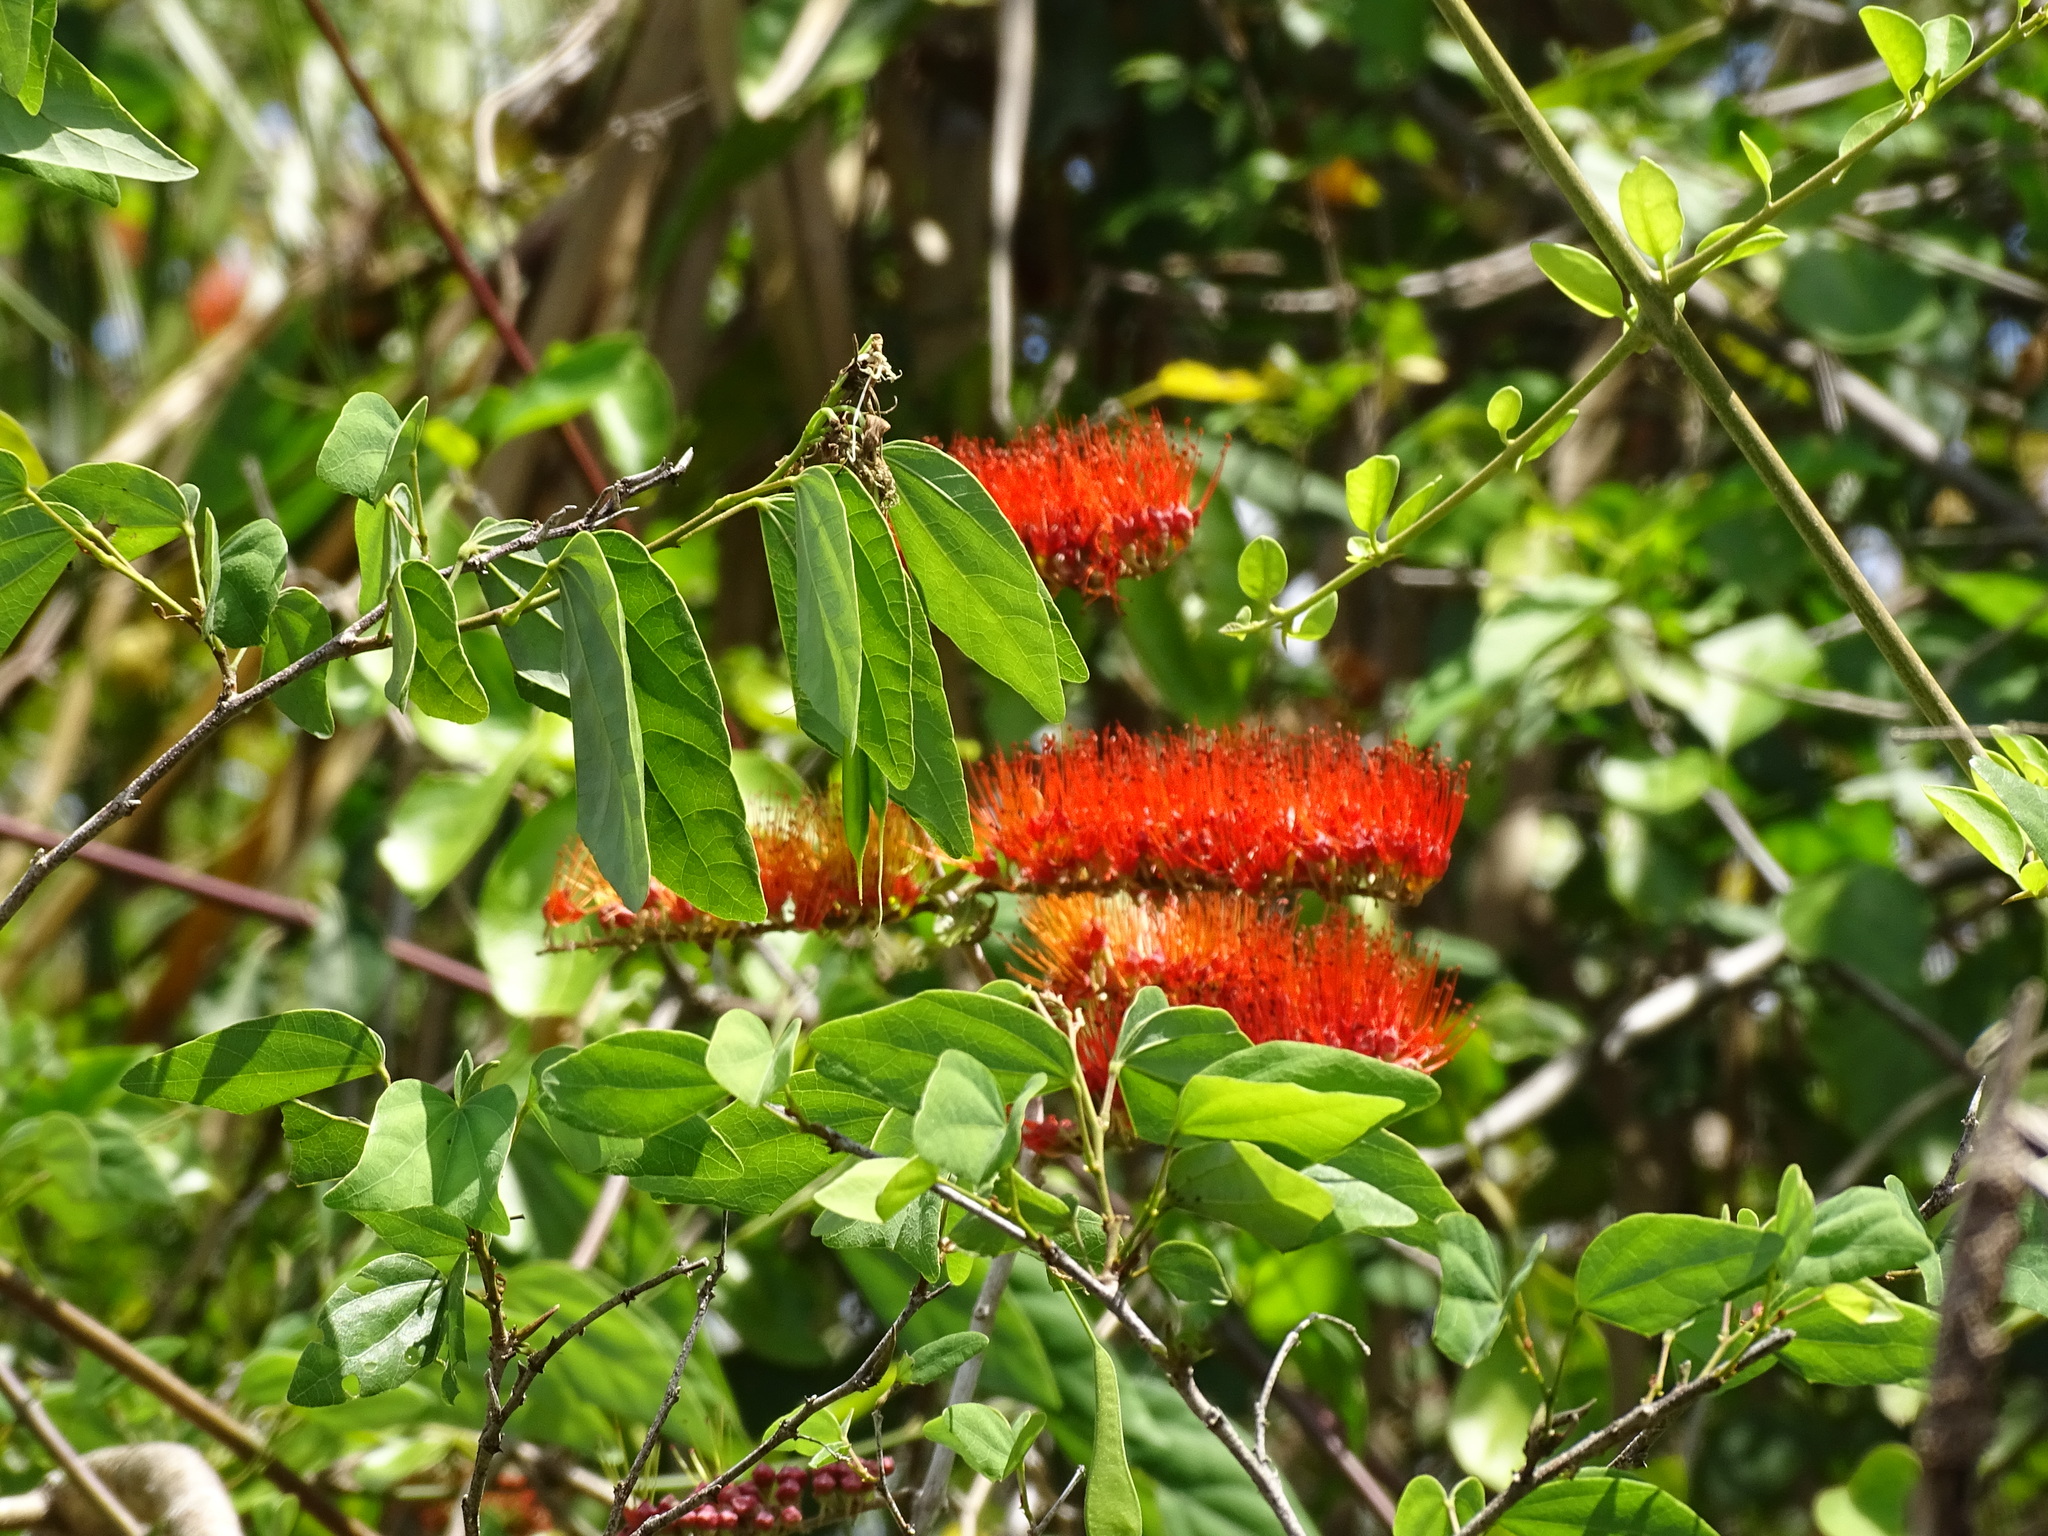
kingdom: Plantae
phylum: Tracheophyta
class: Magnoliopsida
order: Myrtales
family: Combretaceae
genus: Combretum
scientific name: Combretum farinosum
